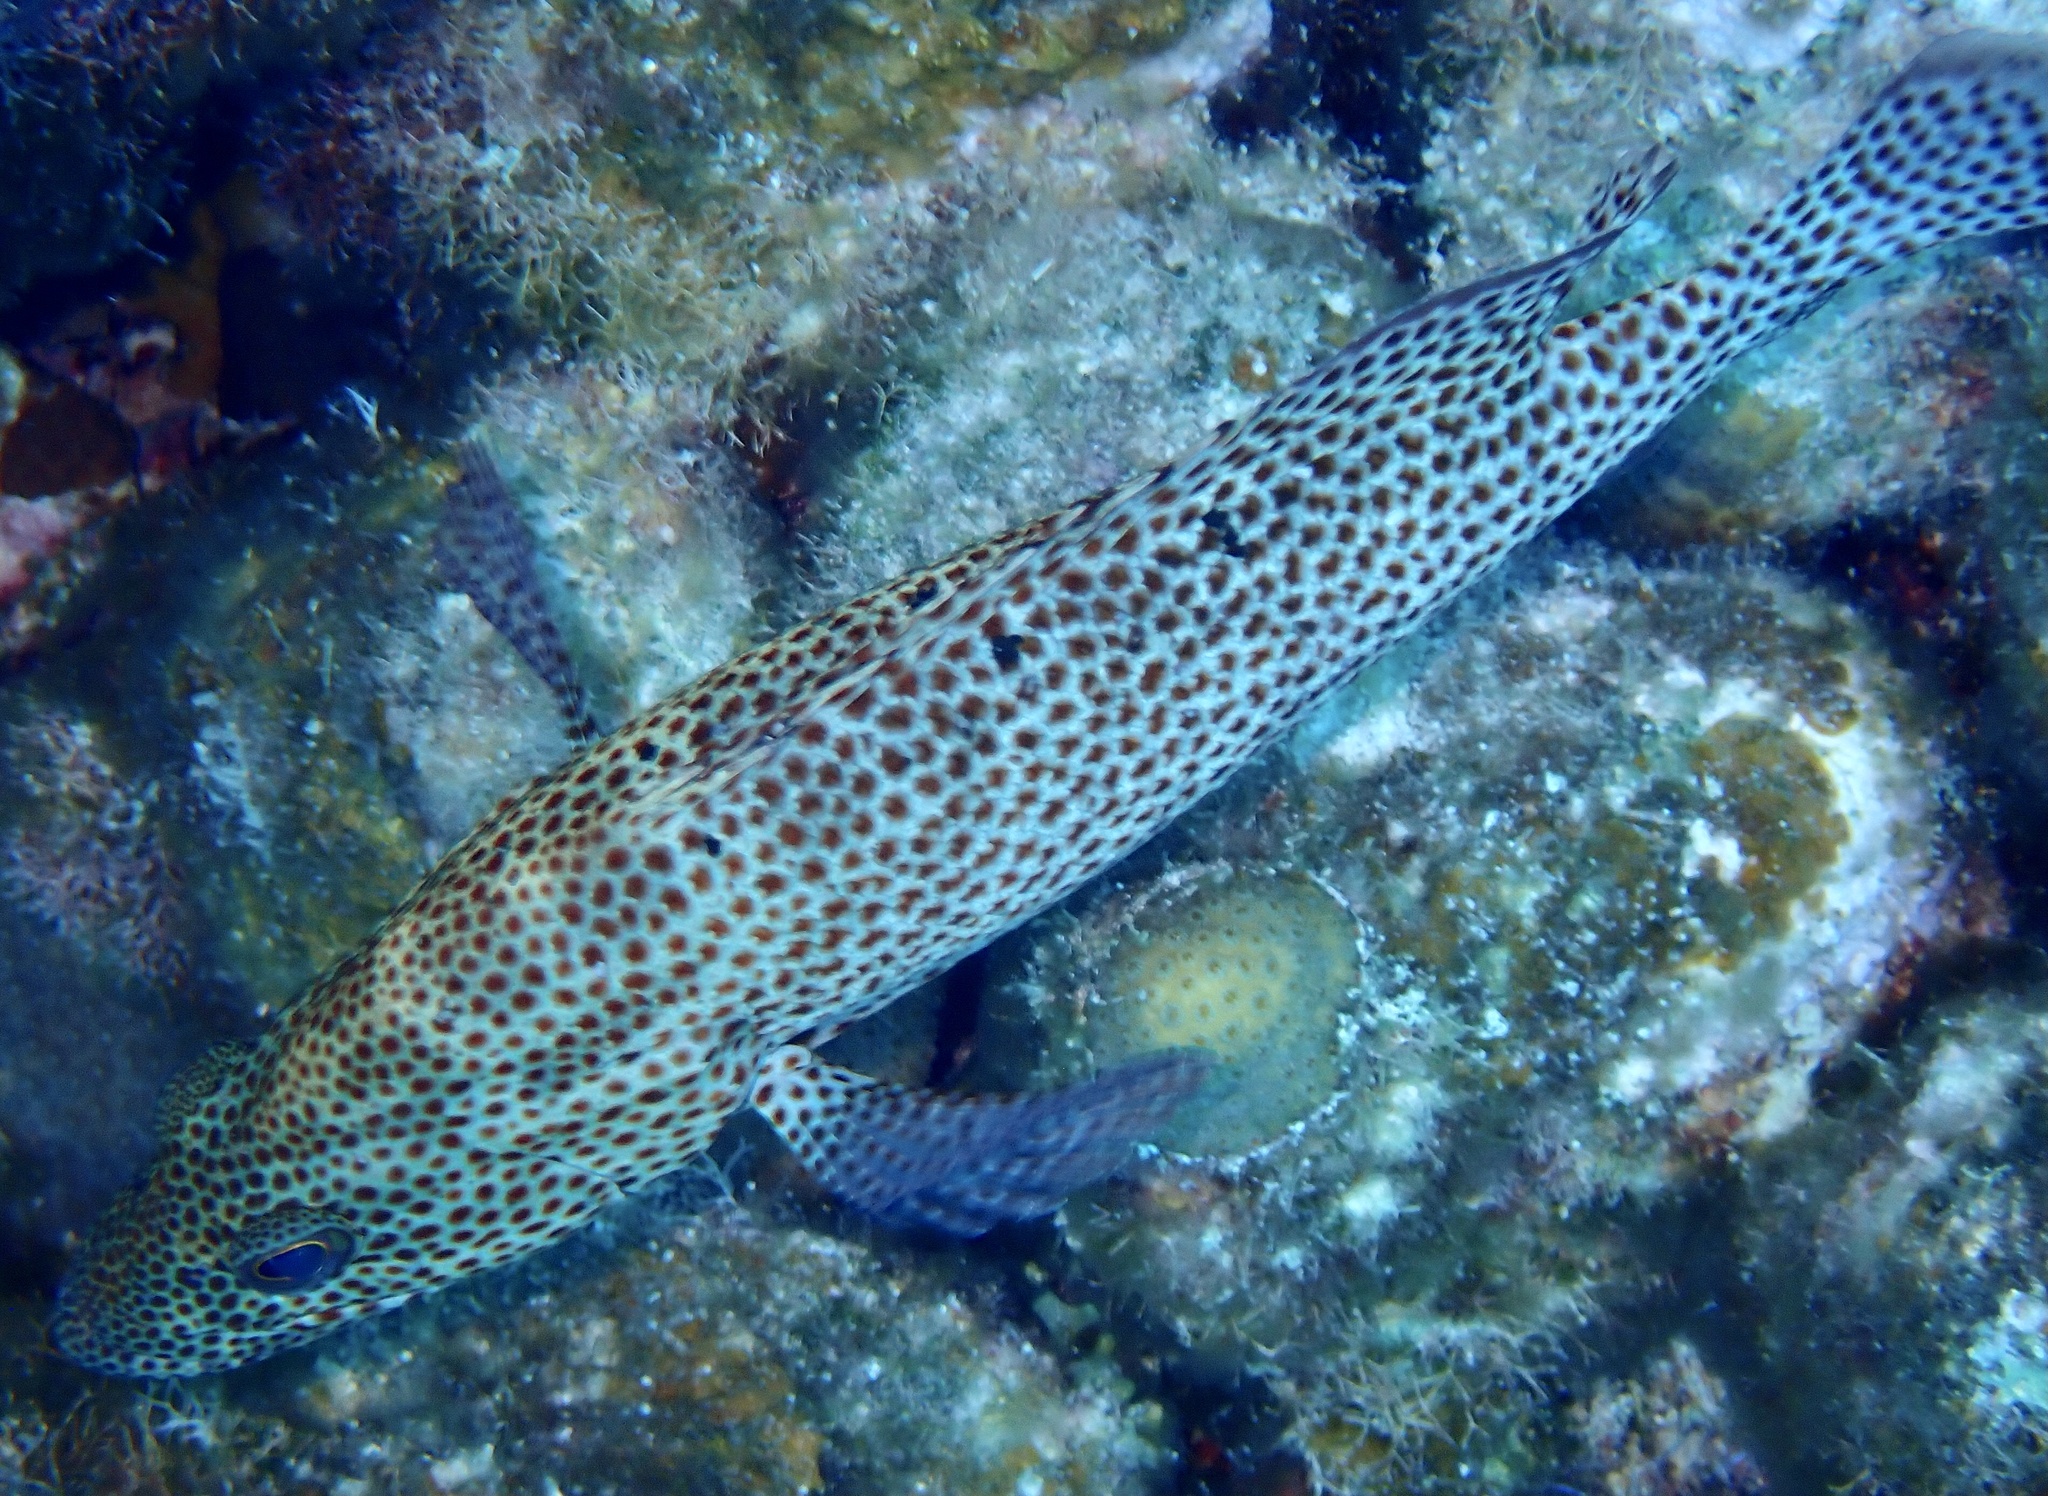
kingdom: Animalia
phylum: Chordata
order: Perciformes
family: Serranidae
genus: Cephalopholis
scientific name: Cephalopholis cruentata
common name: Graysby
